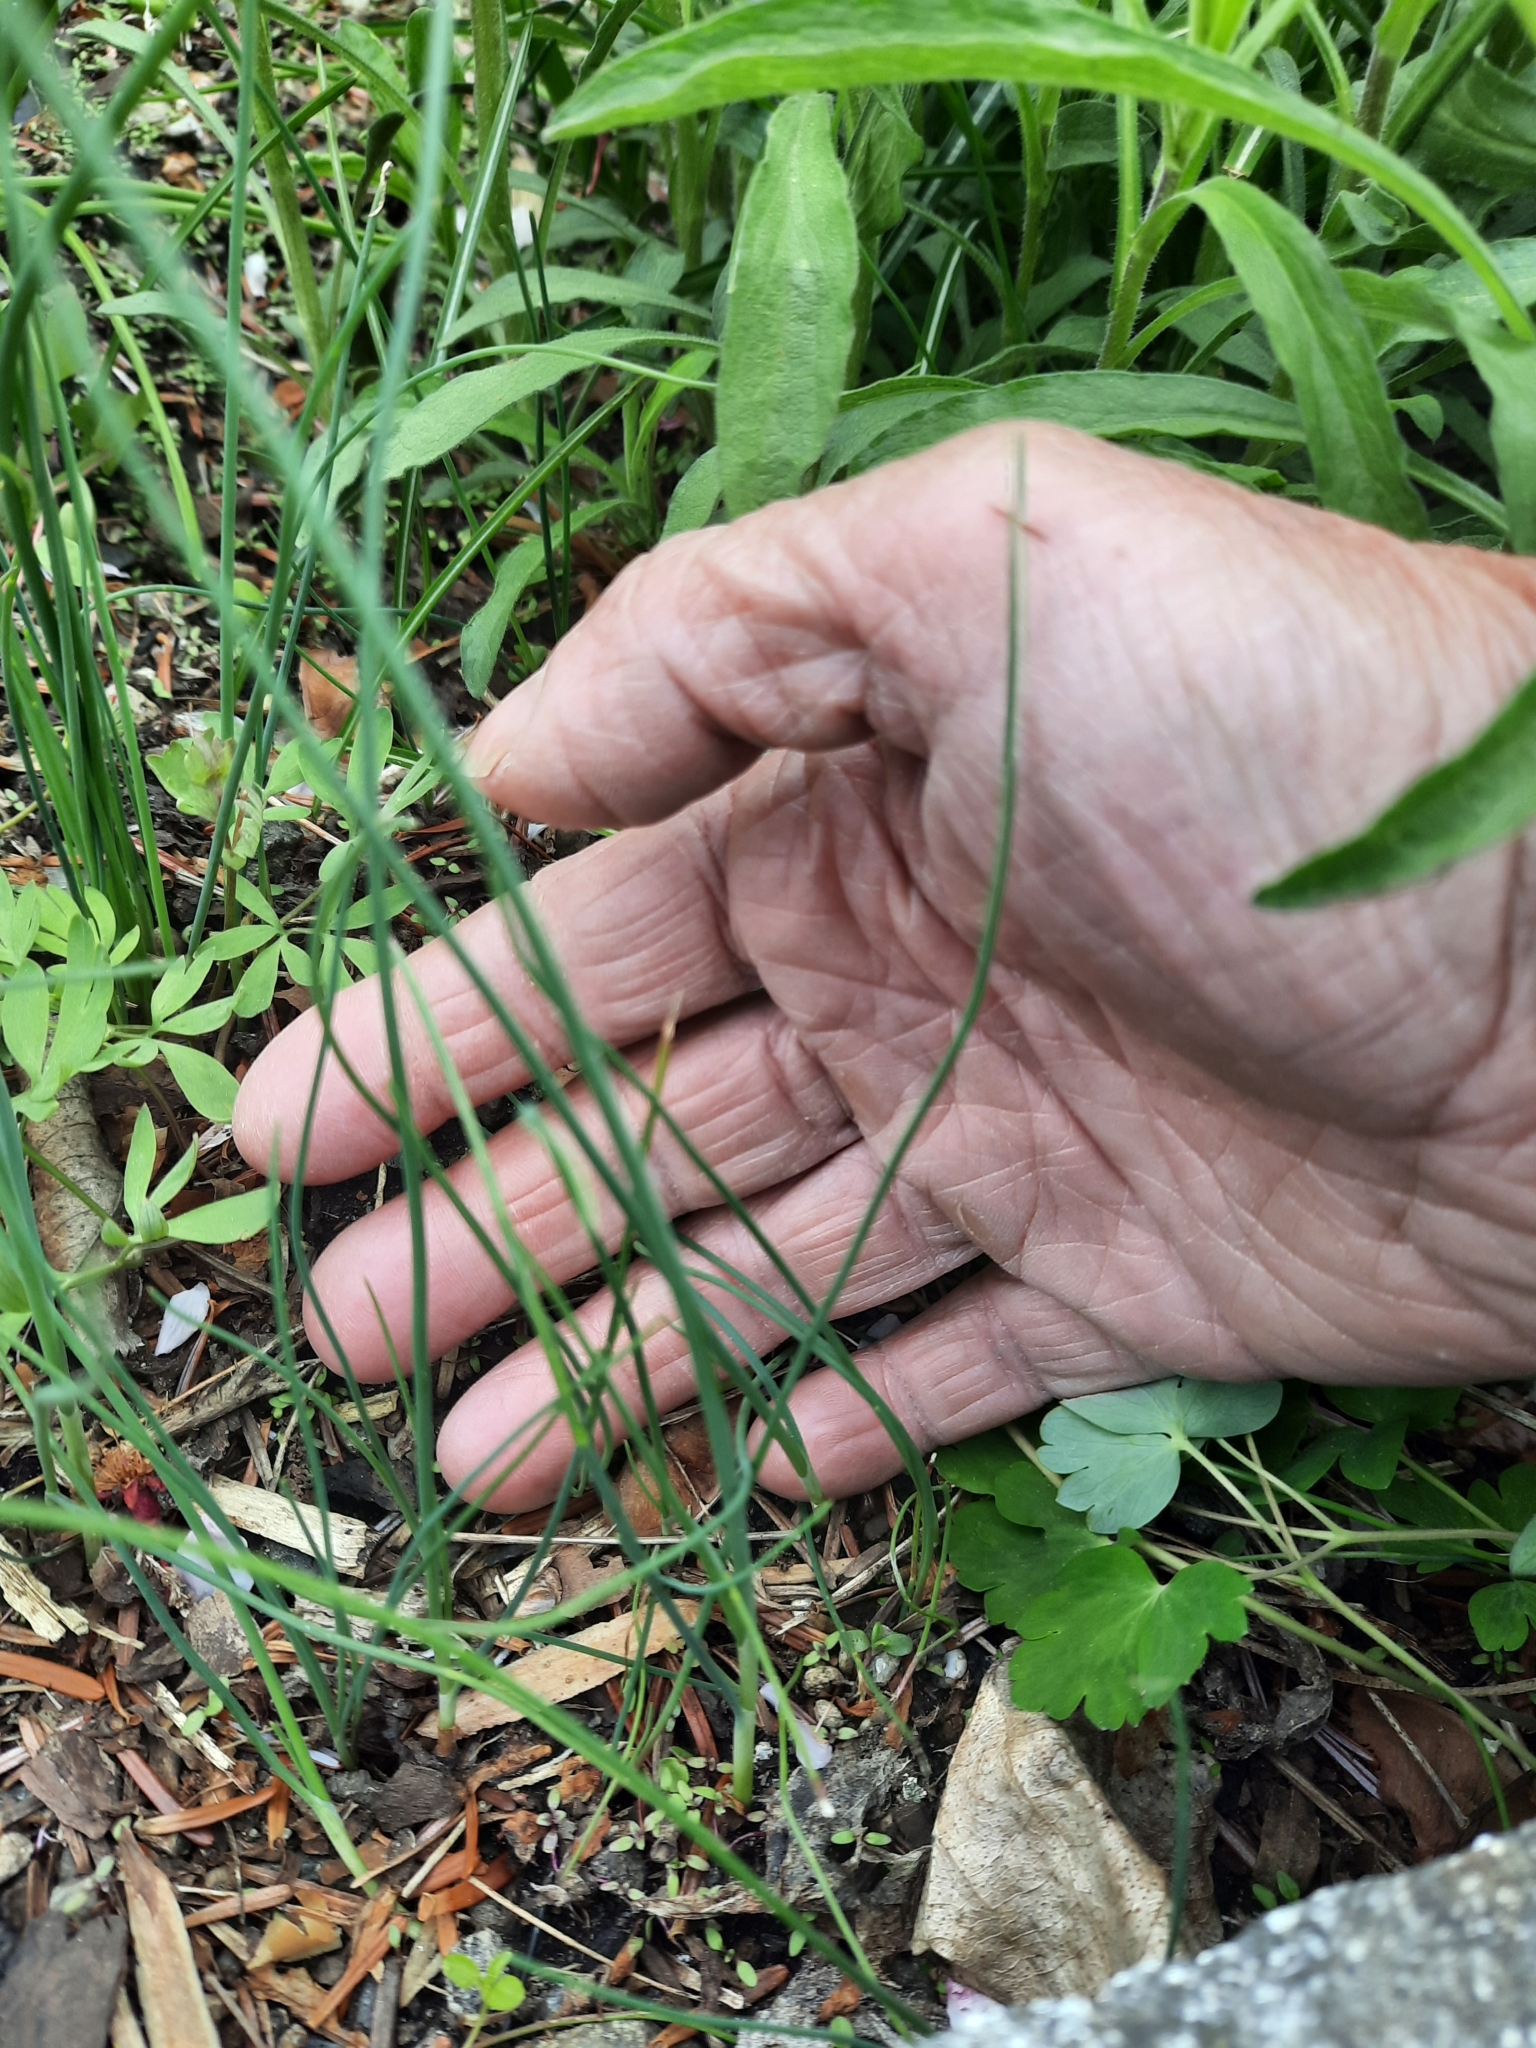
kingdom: Plantae
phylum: Tracheophyta
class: Liliopsida
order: Asparagales
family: Amaryllidaceae
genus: Allium
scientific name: Allium vineale
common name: Crow garlic
